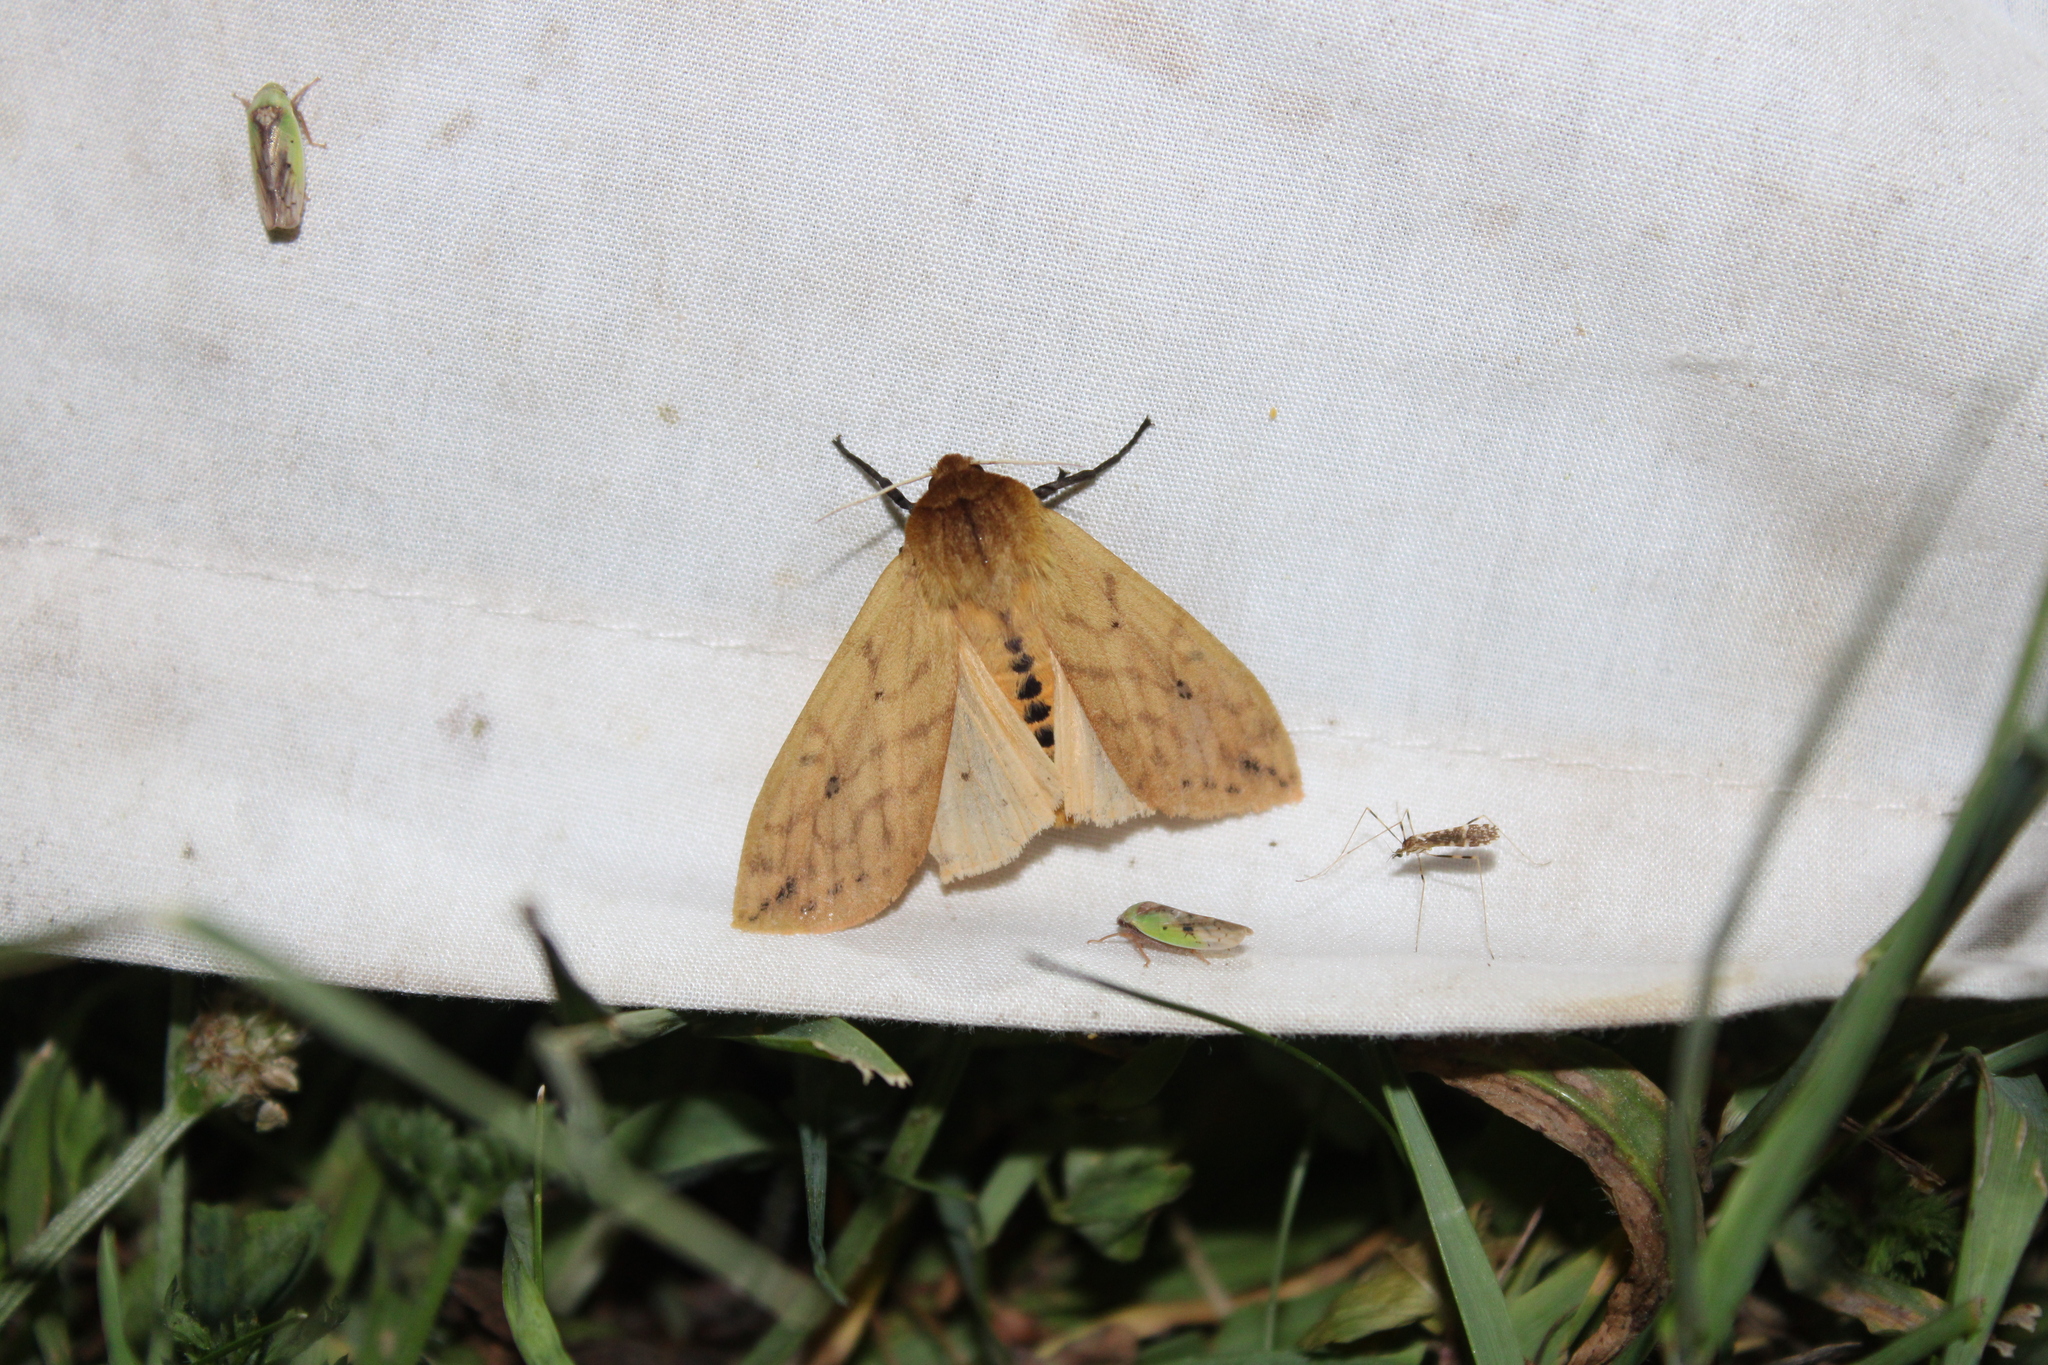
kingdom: Animalia
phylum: Arthropoda
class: Insecta
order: Lepidoptera
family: Erebidae
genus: Pyrrharctia
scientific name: Pyrrharctia isabella
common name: Isabella tiger moth
